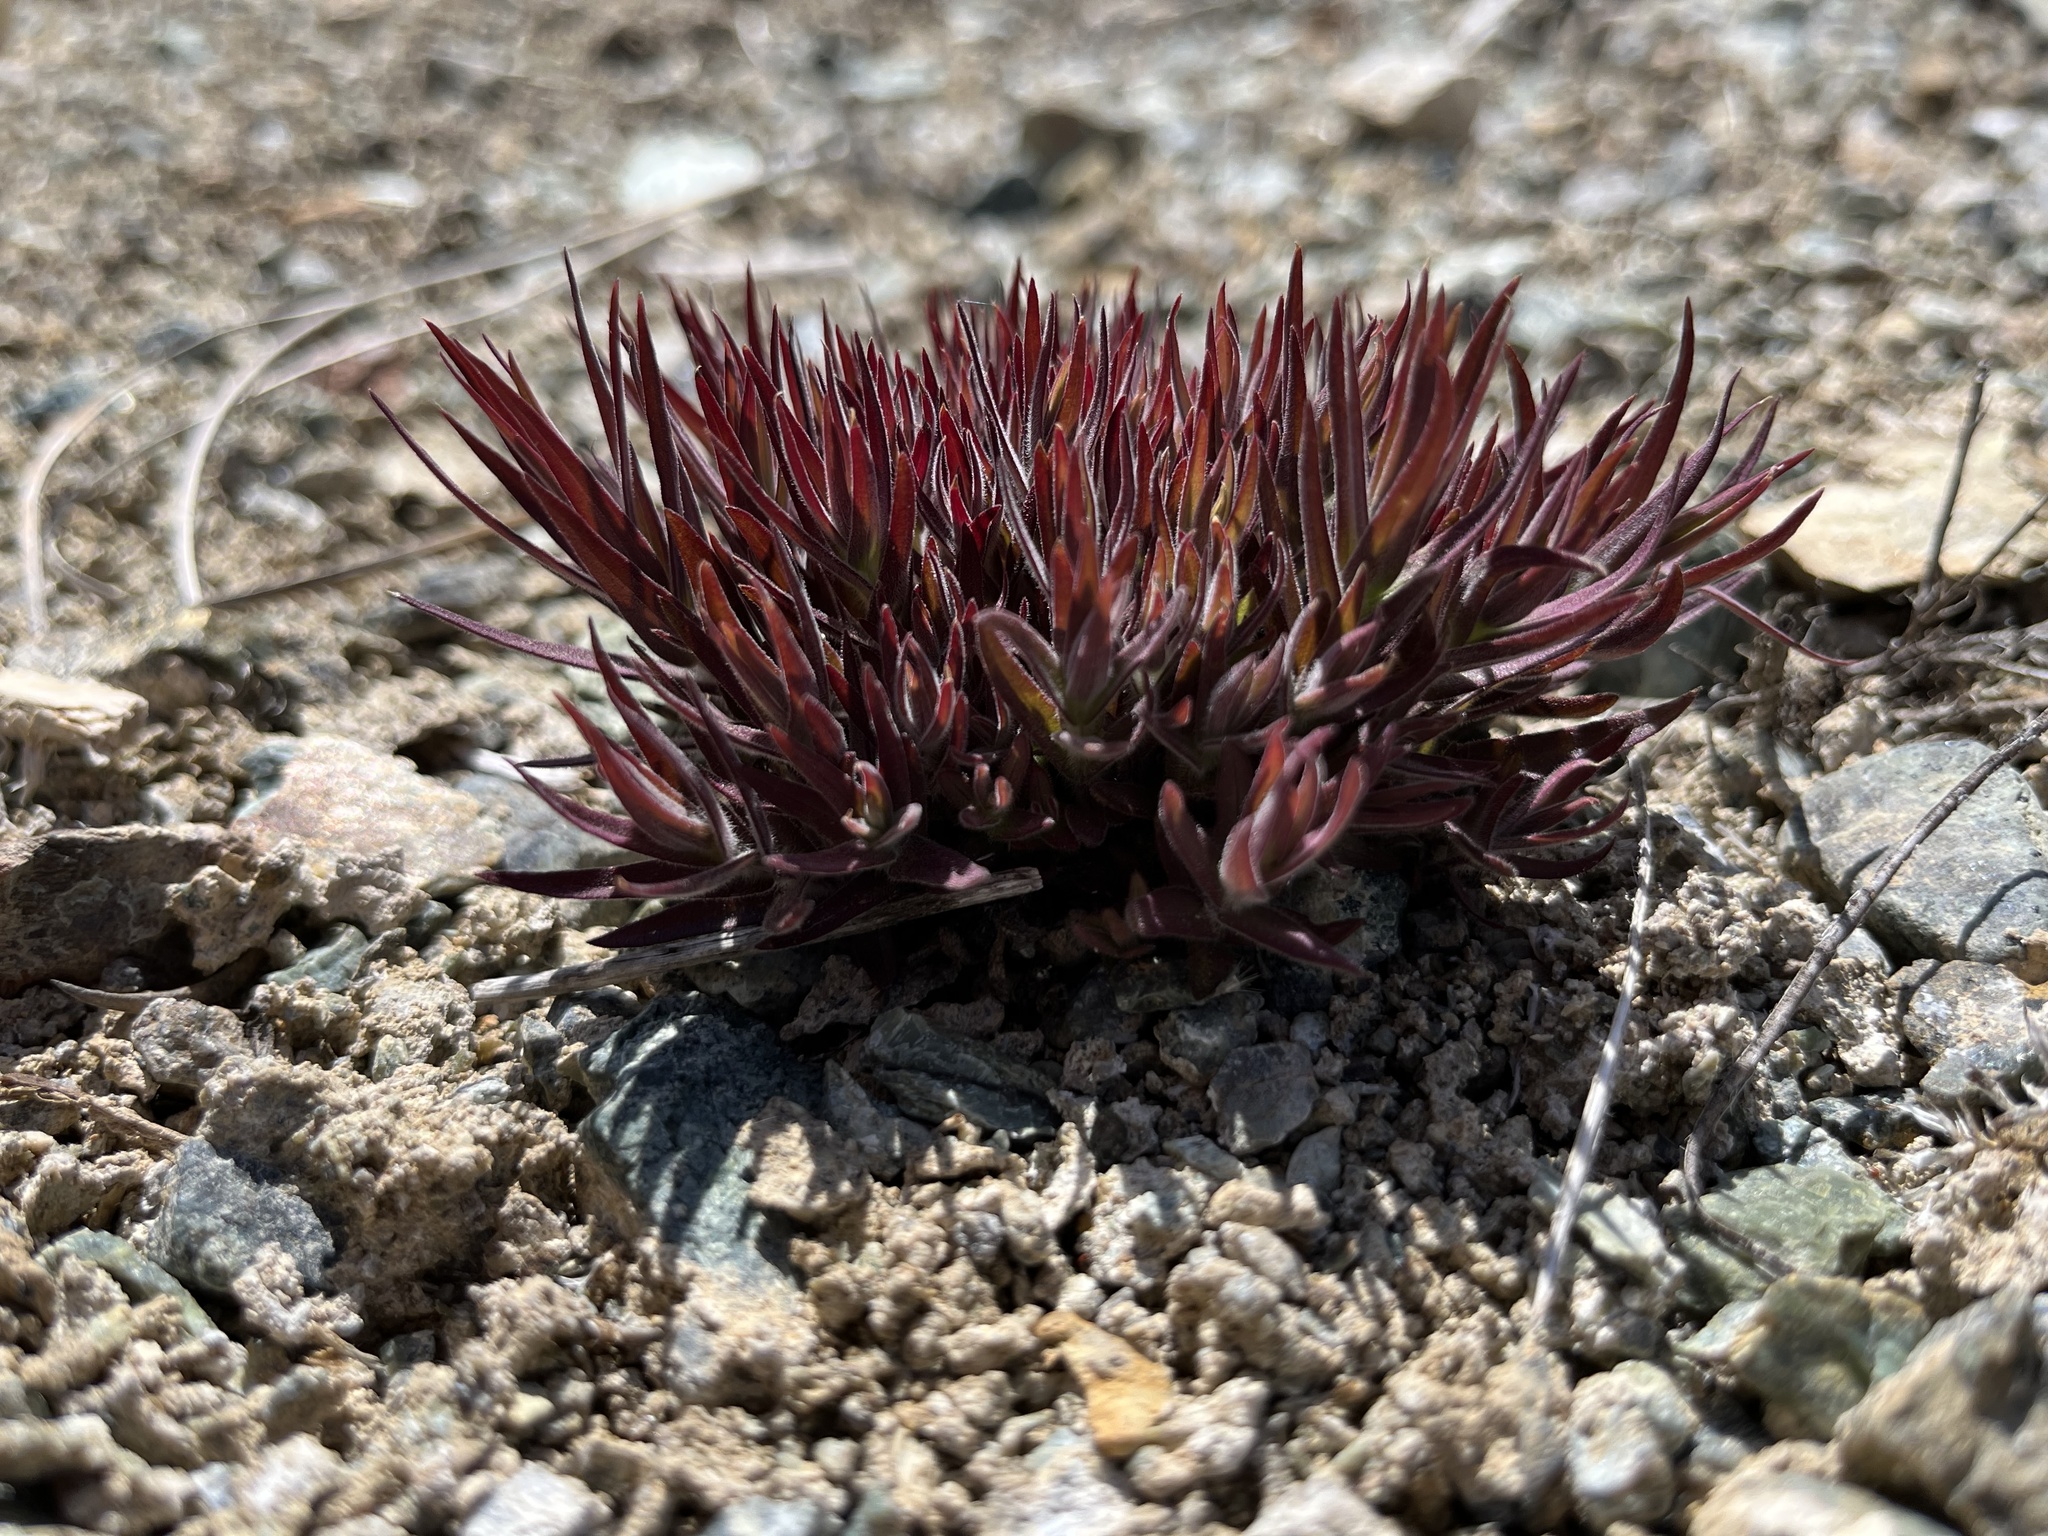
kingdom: Plantae
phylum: Tracheophyta
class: Magnoliopsida
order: Lamiales
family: Orobanchaceae
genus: Castilleja
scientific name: Castilleja miniata
